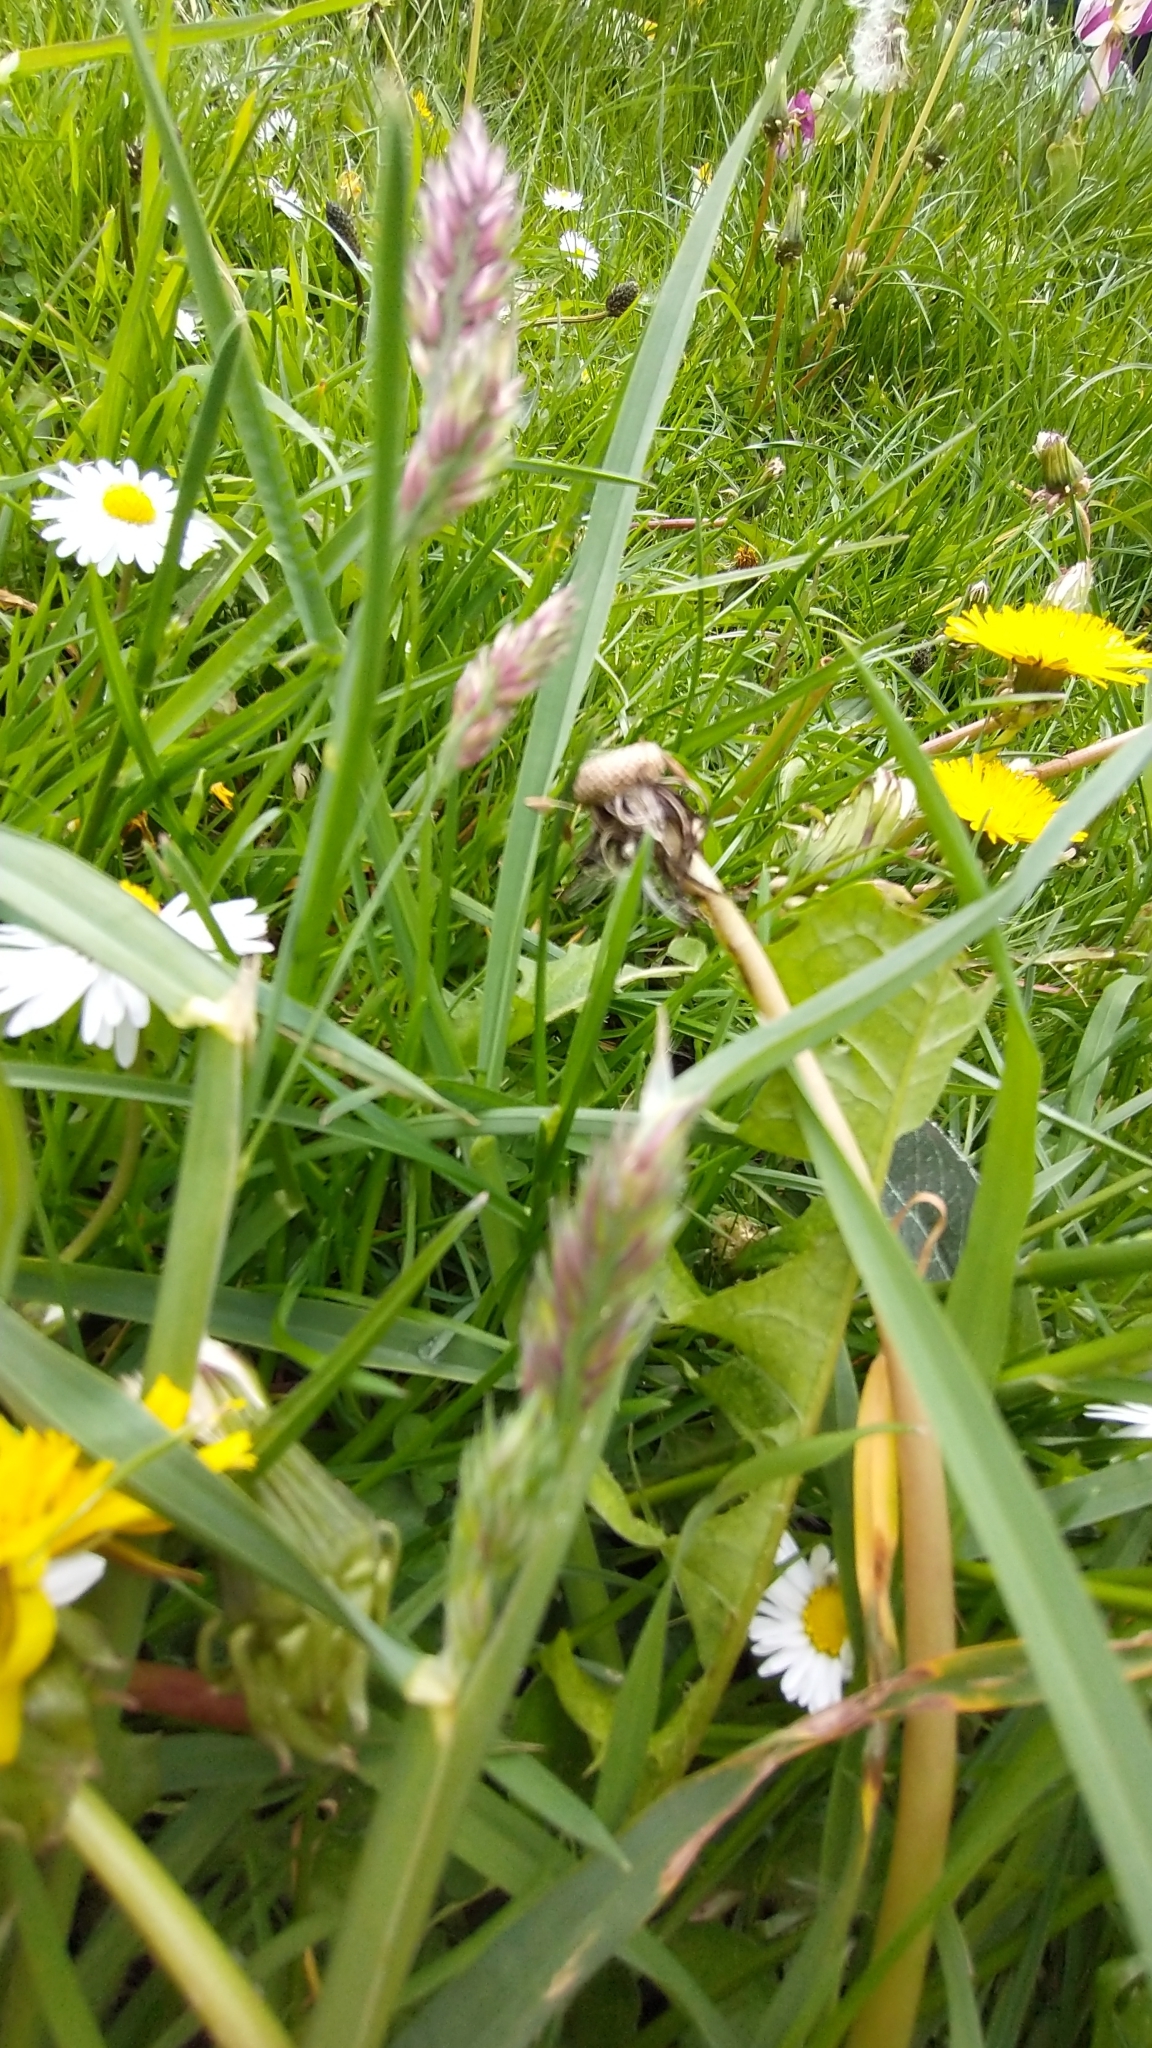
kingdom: Plantae
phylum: Tracheophyta
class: Liliopsida
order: Poales
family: Poaceae
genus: Dactylis
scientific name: Dactylis glomerata
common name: Orchardgrass
